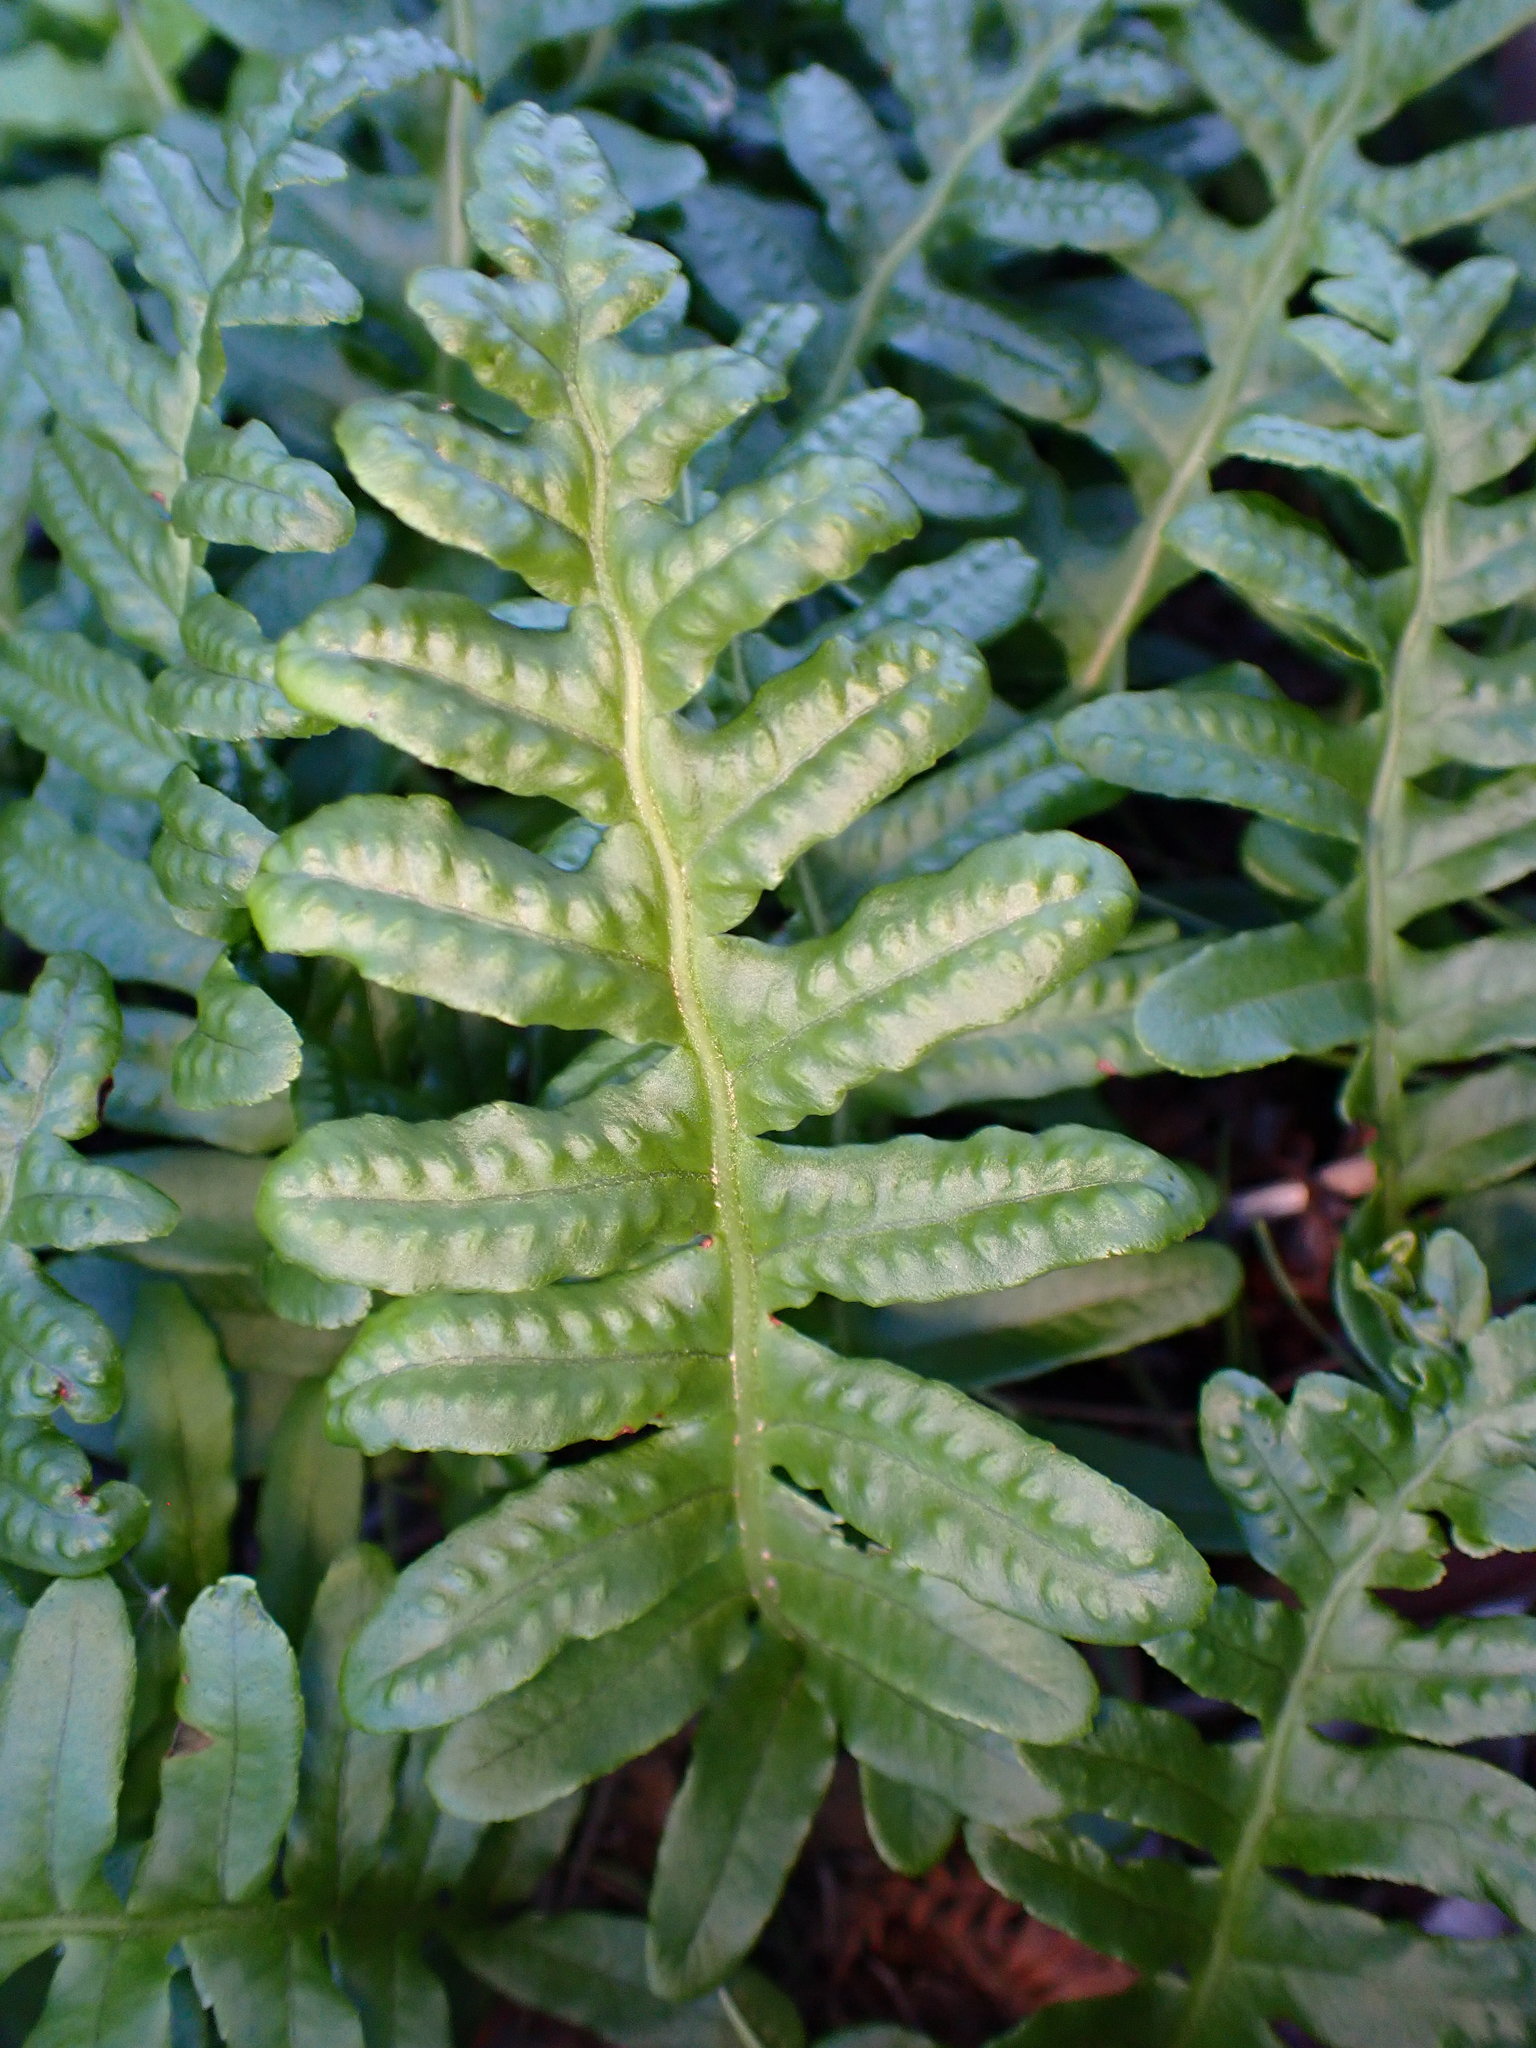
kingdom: Plantae
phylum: Tracheophyta
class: Polypodiopsida
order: Polypodiales
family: Polypodiaceae
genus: Polypodium
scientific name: Polypodium californicum
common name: California polypody
